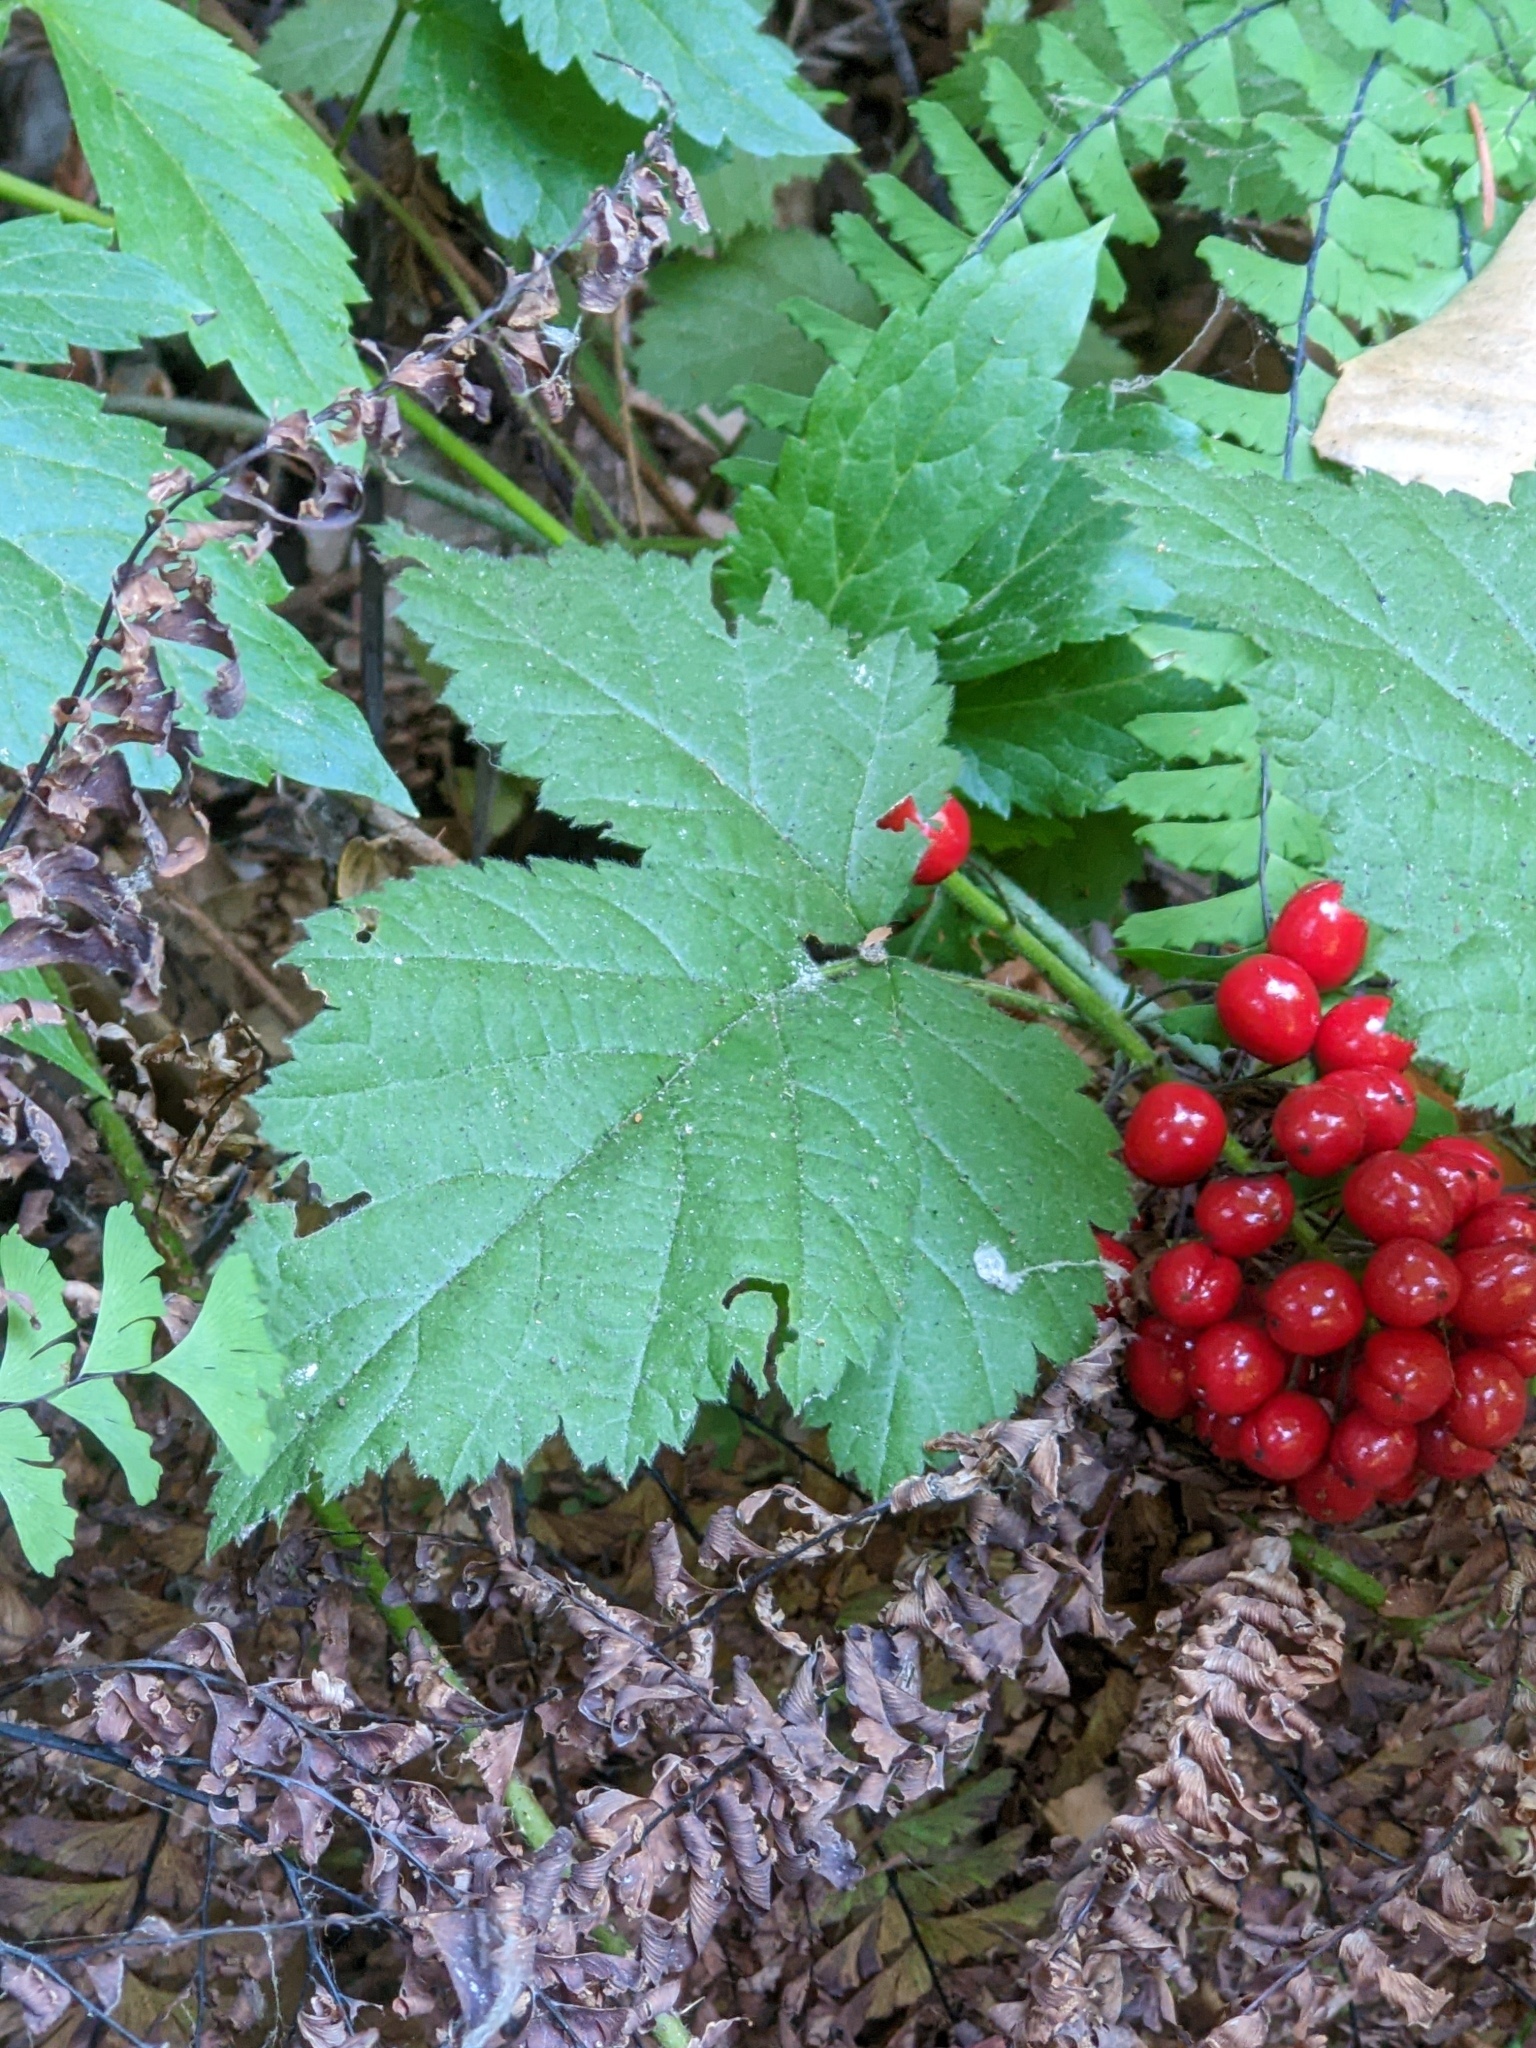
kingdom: Plantae
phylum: Tracheophyta
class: Magnoliopsida
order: Ranunculales
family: Ranunculaceae
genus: Actaea
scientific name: Actaea rubra
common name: Red baneberry
